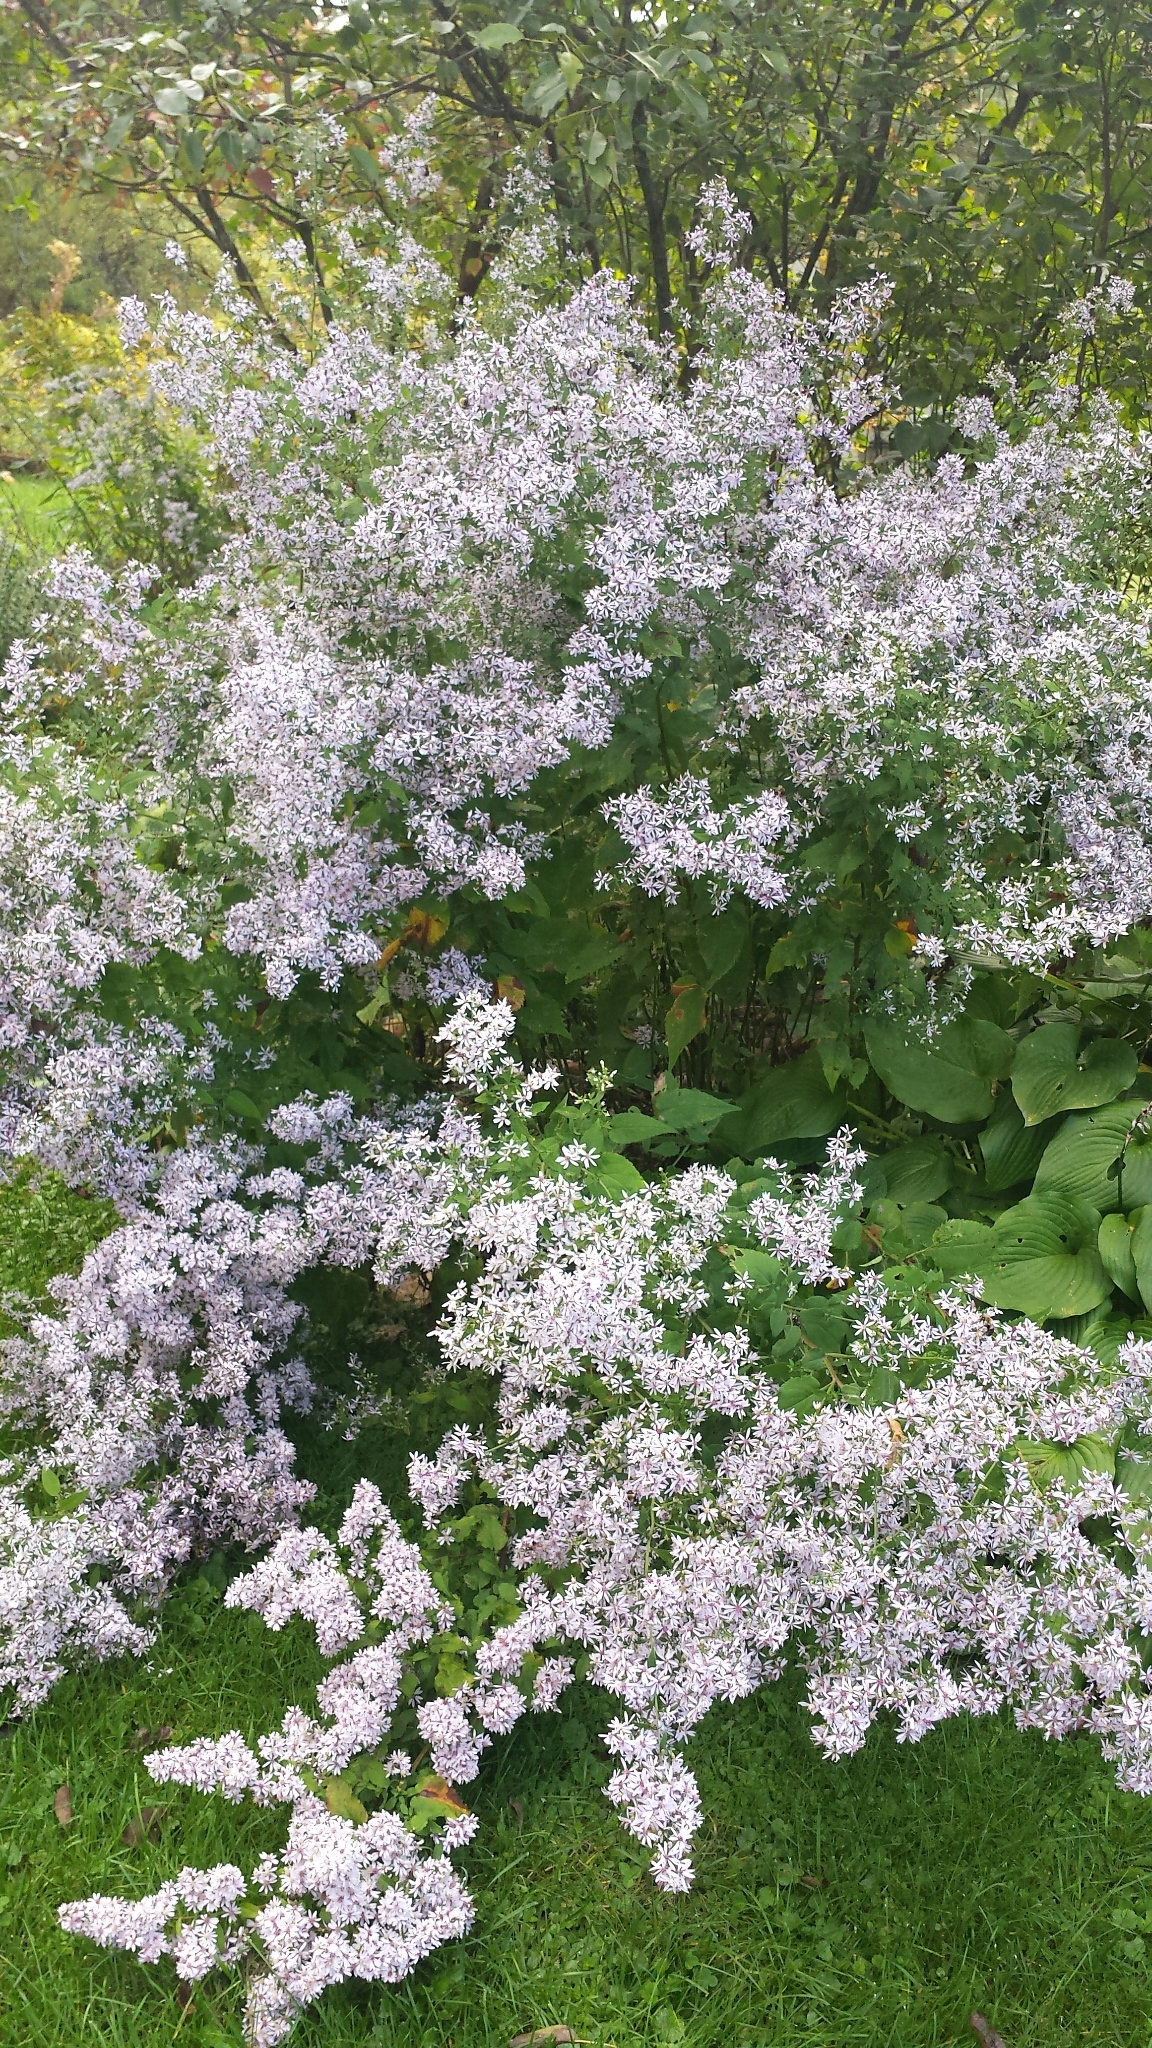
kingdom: Plantae
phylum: Tracheophyta
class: Magnoliopsida
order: Asterales
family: Asteraceae
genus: Symphyotrichum
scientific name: Symphyotrichum cordifolium
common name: Beeweed
